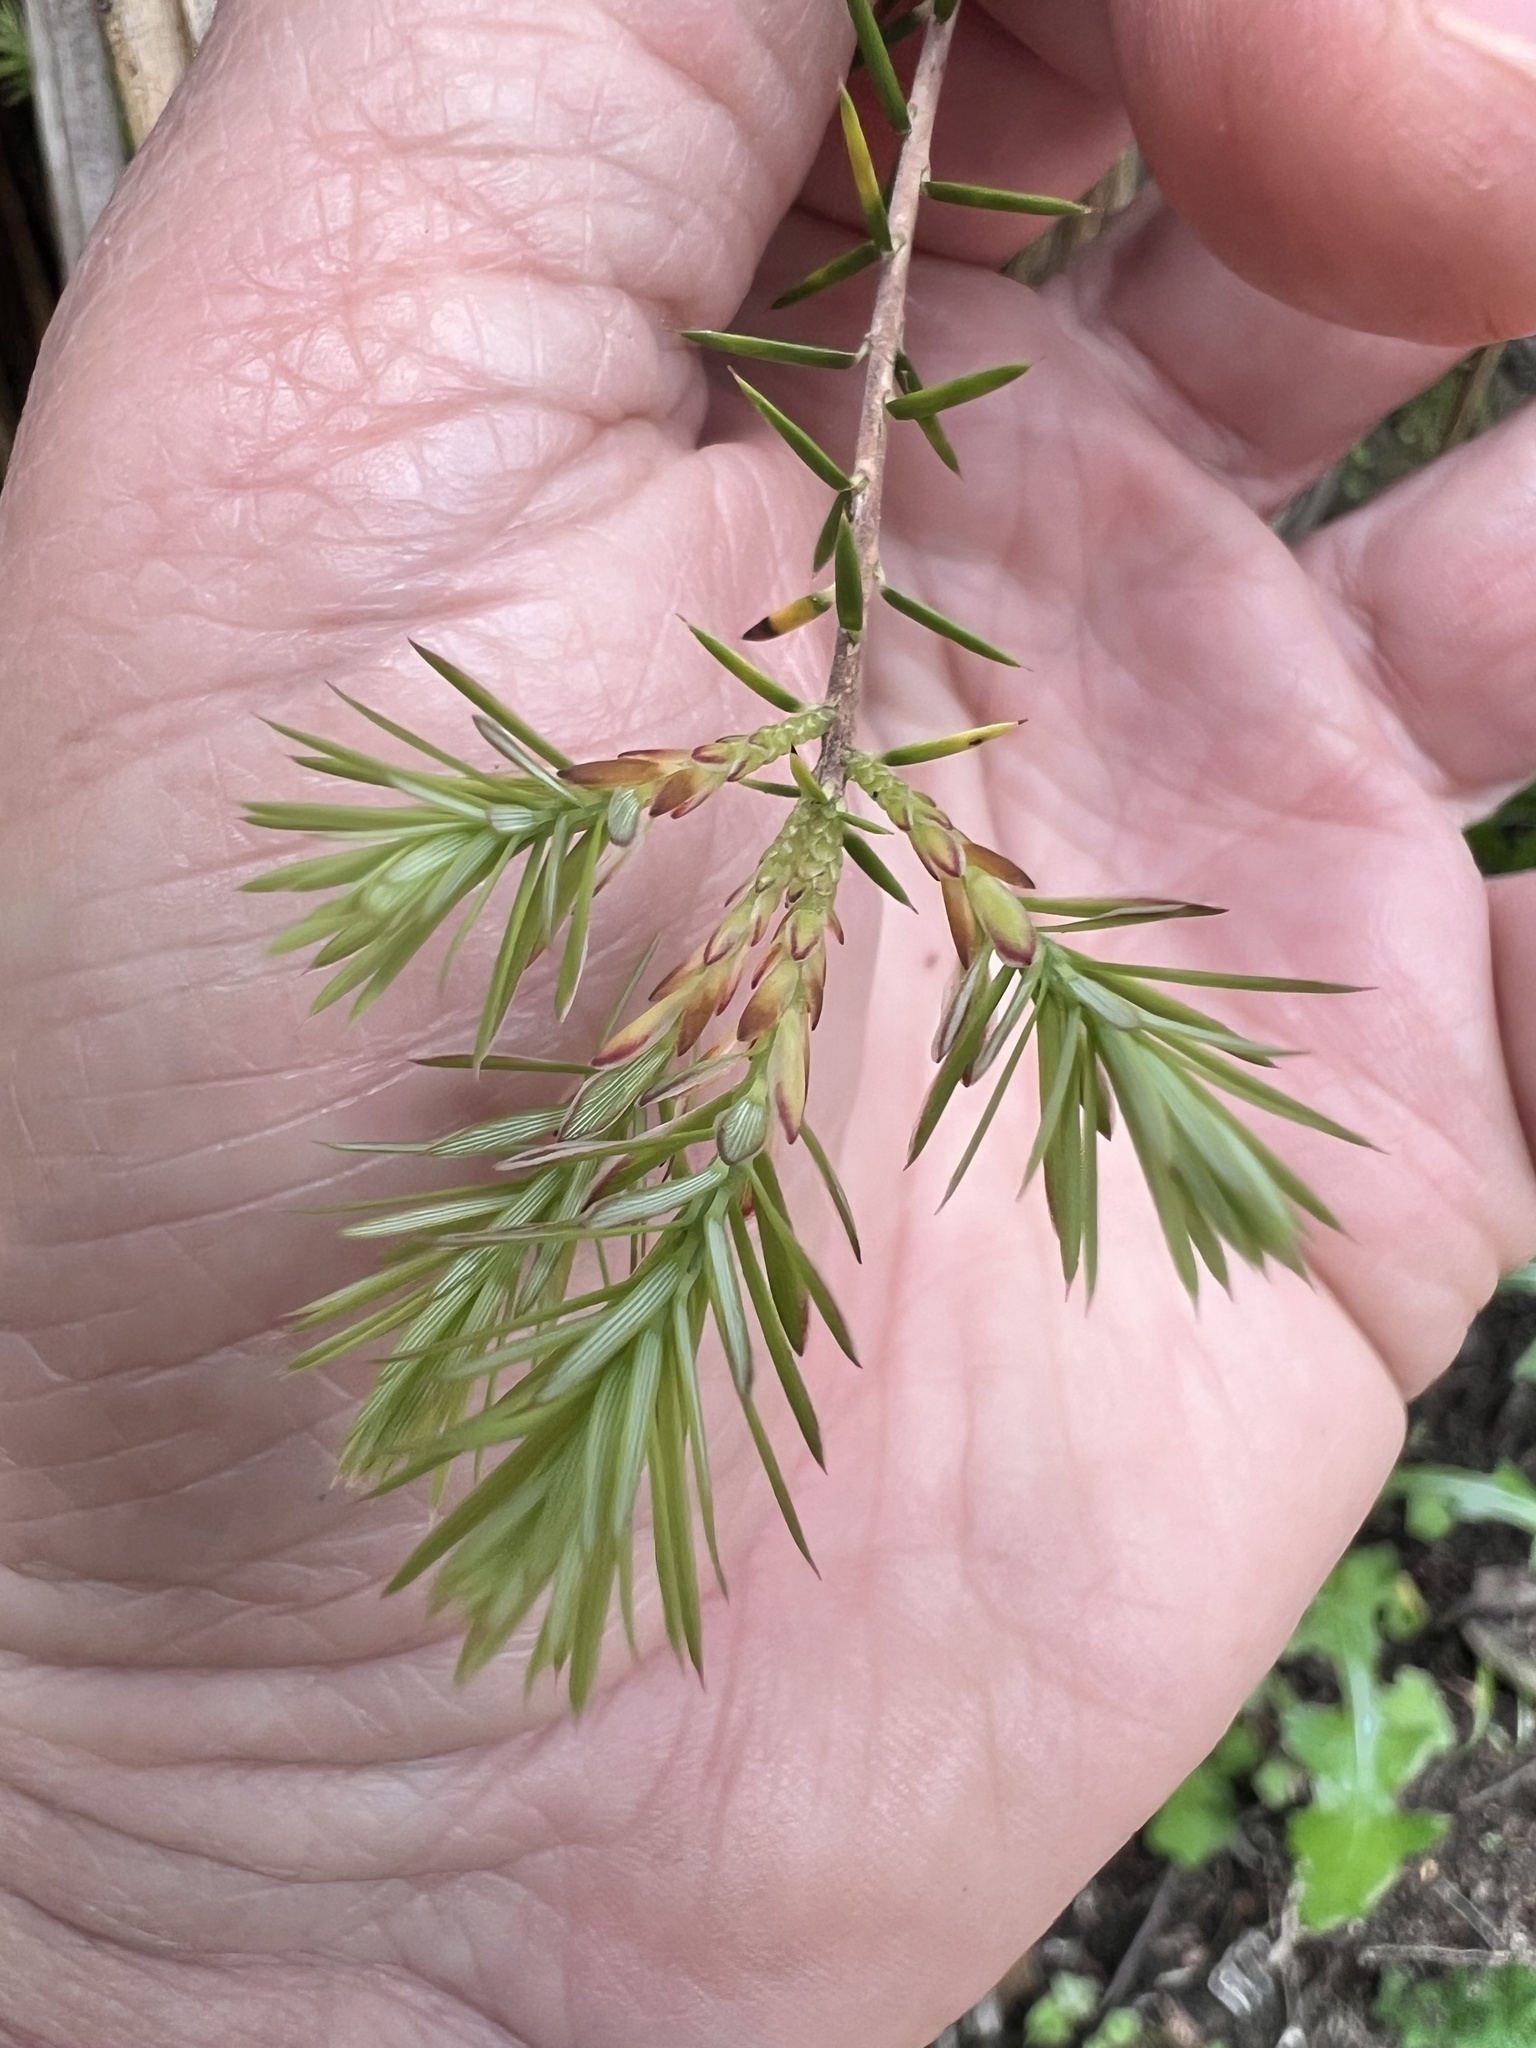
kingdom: Plantae
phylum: Tracheophyta
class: Magnoliopsida
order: Ericales
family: Ericaceae
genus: Leptecophylla
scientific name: Leptecophylla juniperina
